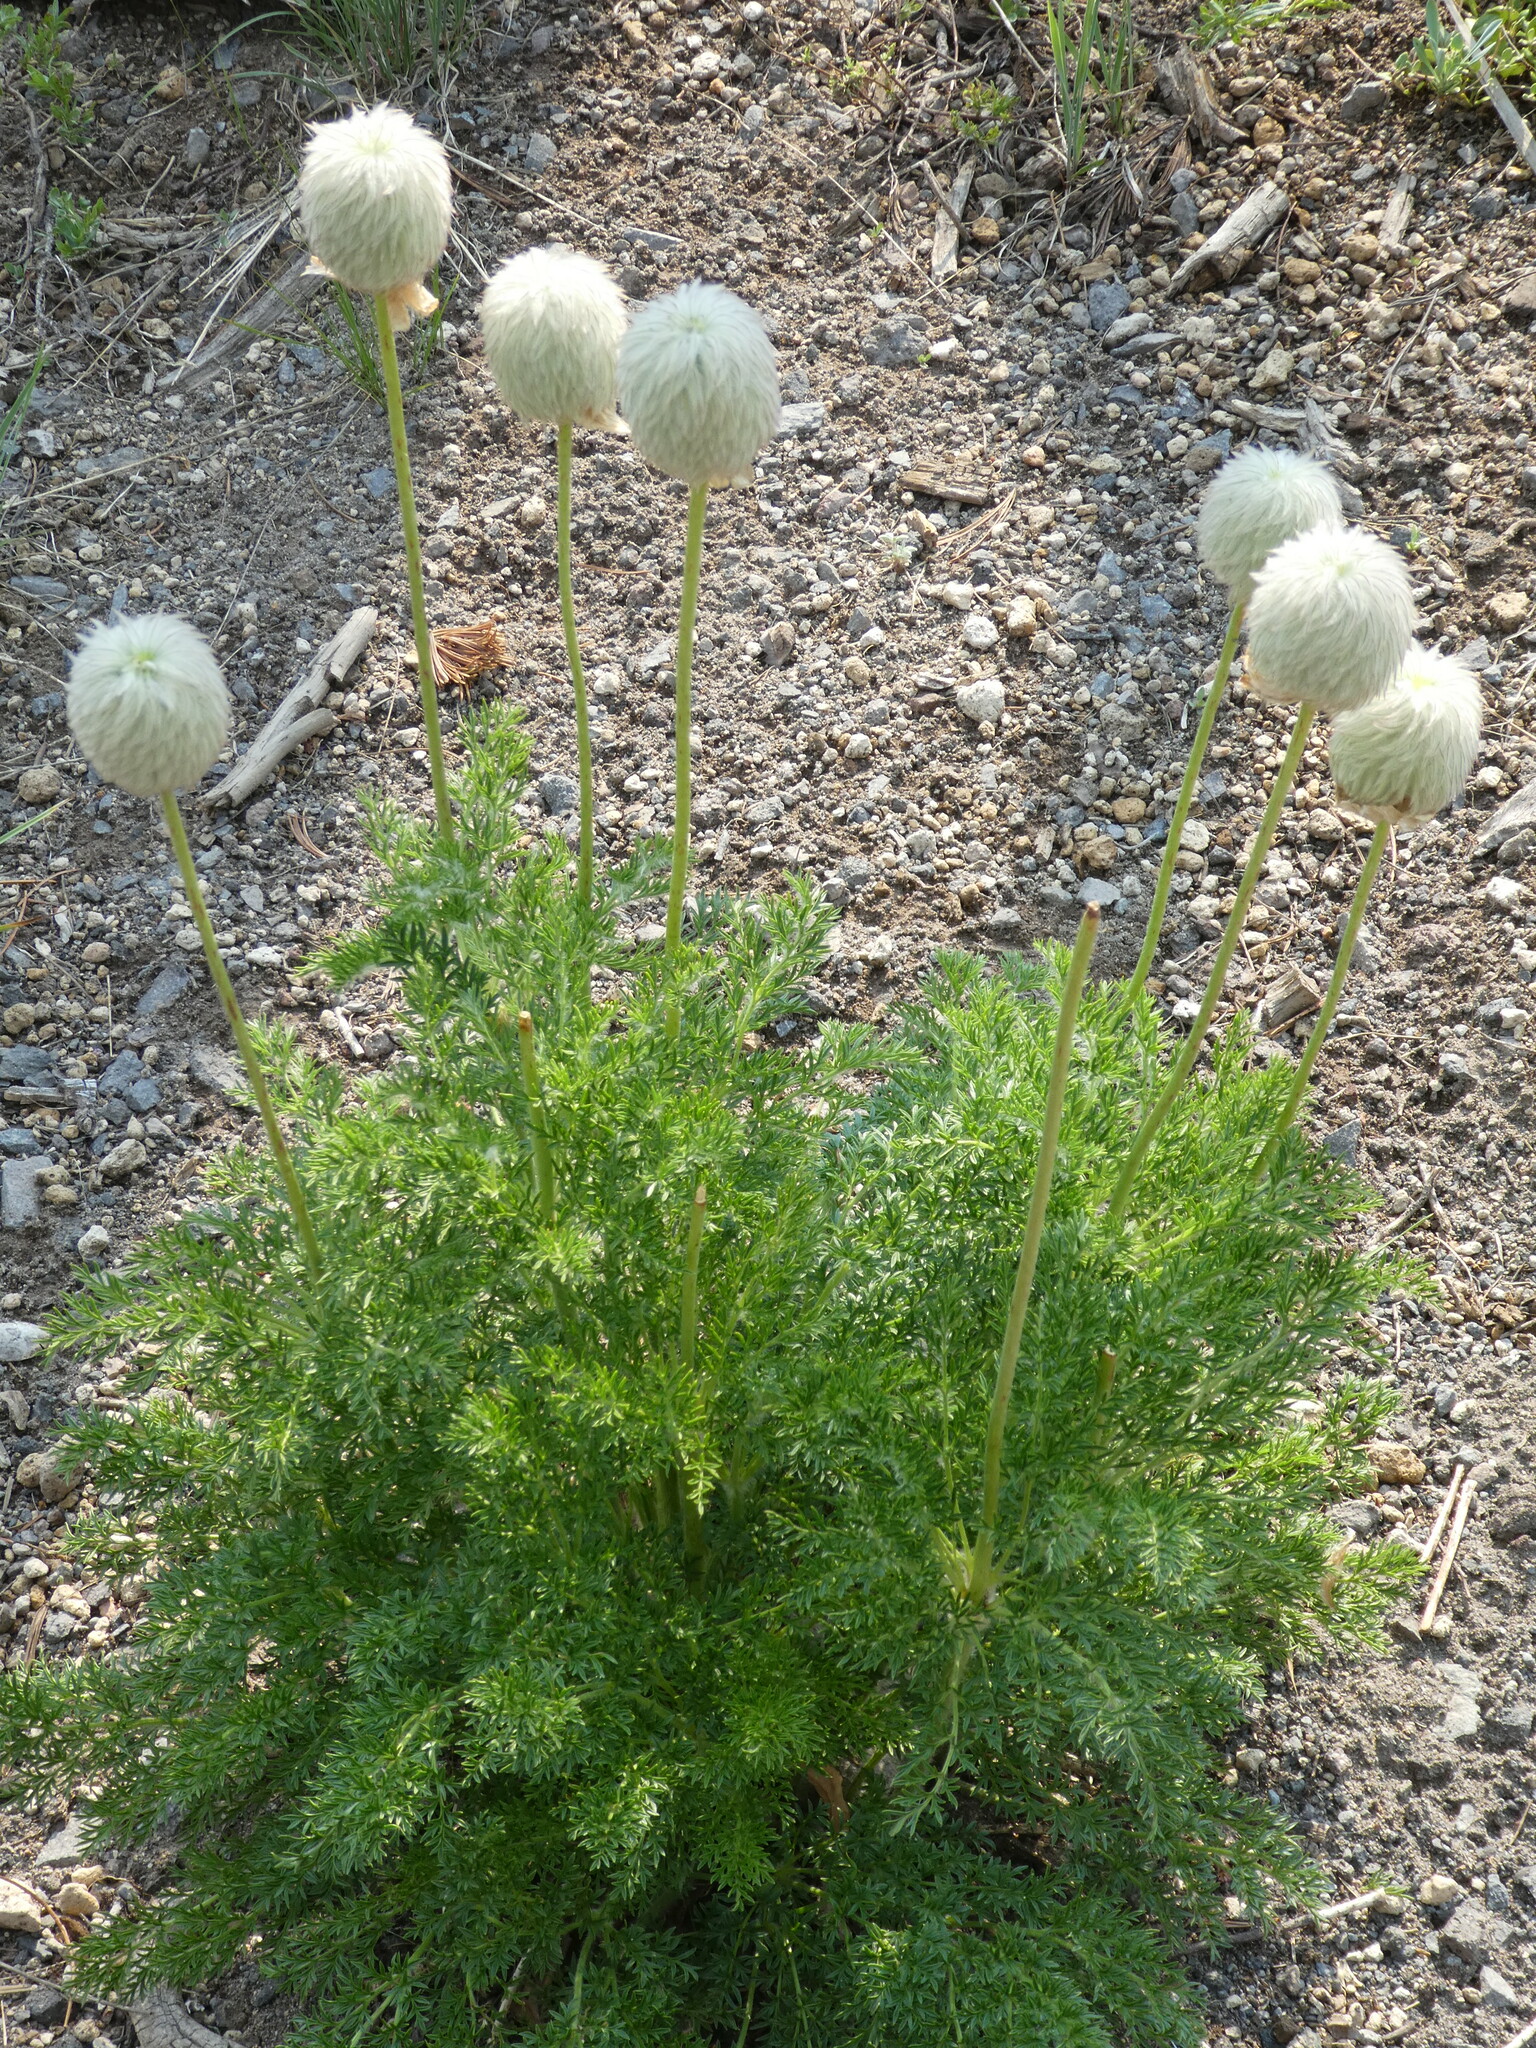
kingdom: Plantae
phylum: Tracheophyta
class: Magnoliopsida
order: Ranunculales
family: Ranunculaceae
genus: Pulsatilla
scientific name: Pulsatilla occidentalis
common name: Mountain pasqueflower
